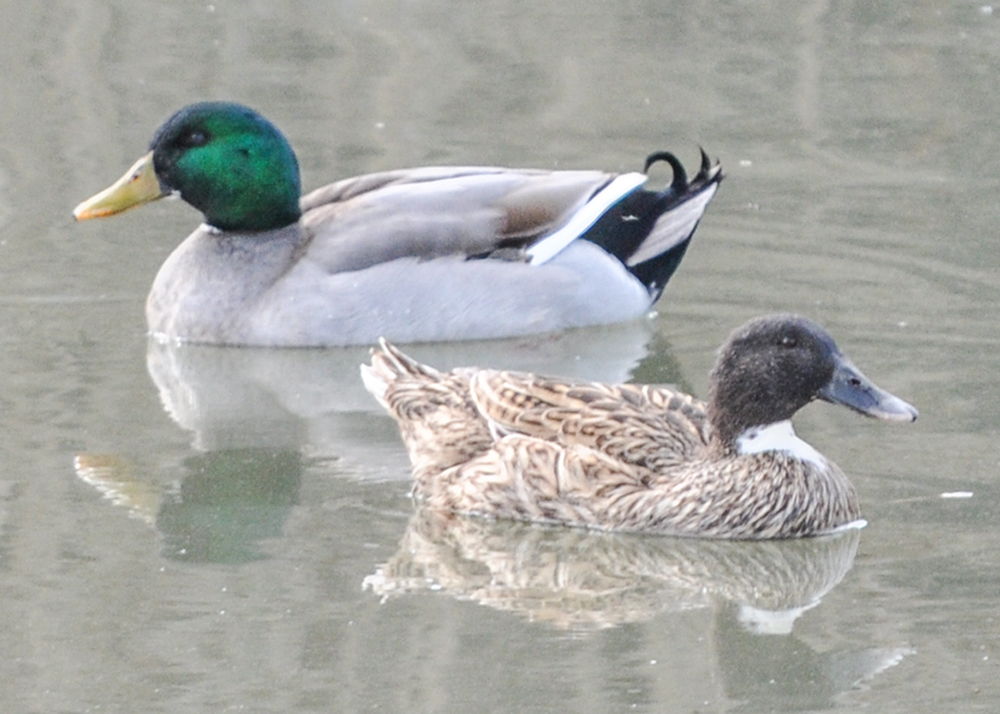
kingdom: Animalia
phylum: Chordata
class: Aves
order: Anseriformes
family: Anatidae
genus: Anas
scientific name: Anas platyrhynchos
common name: Mallard
